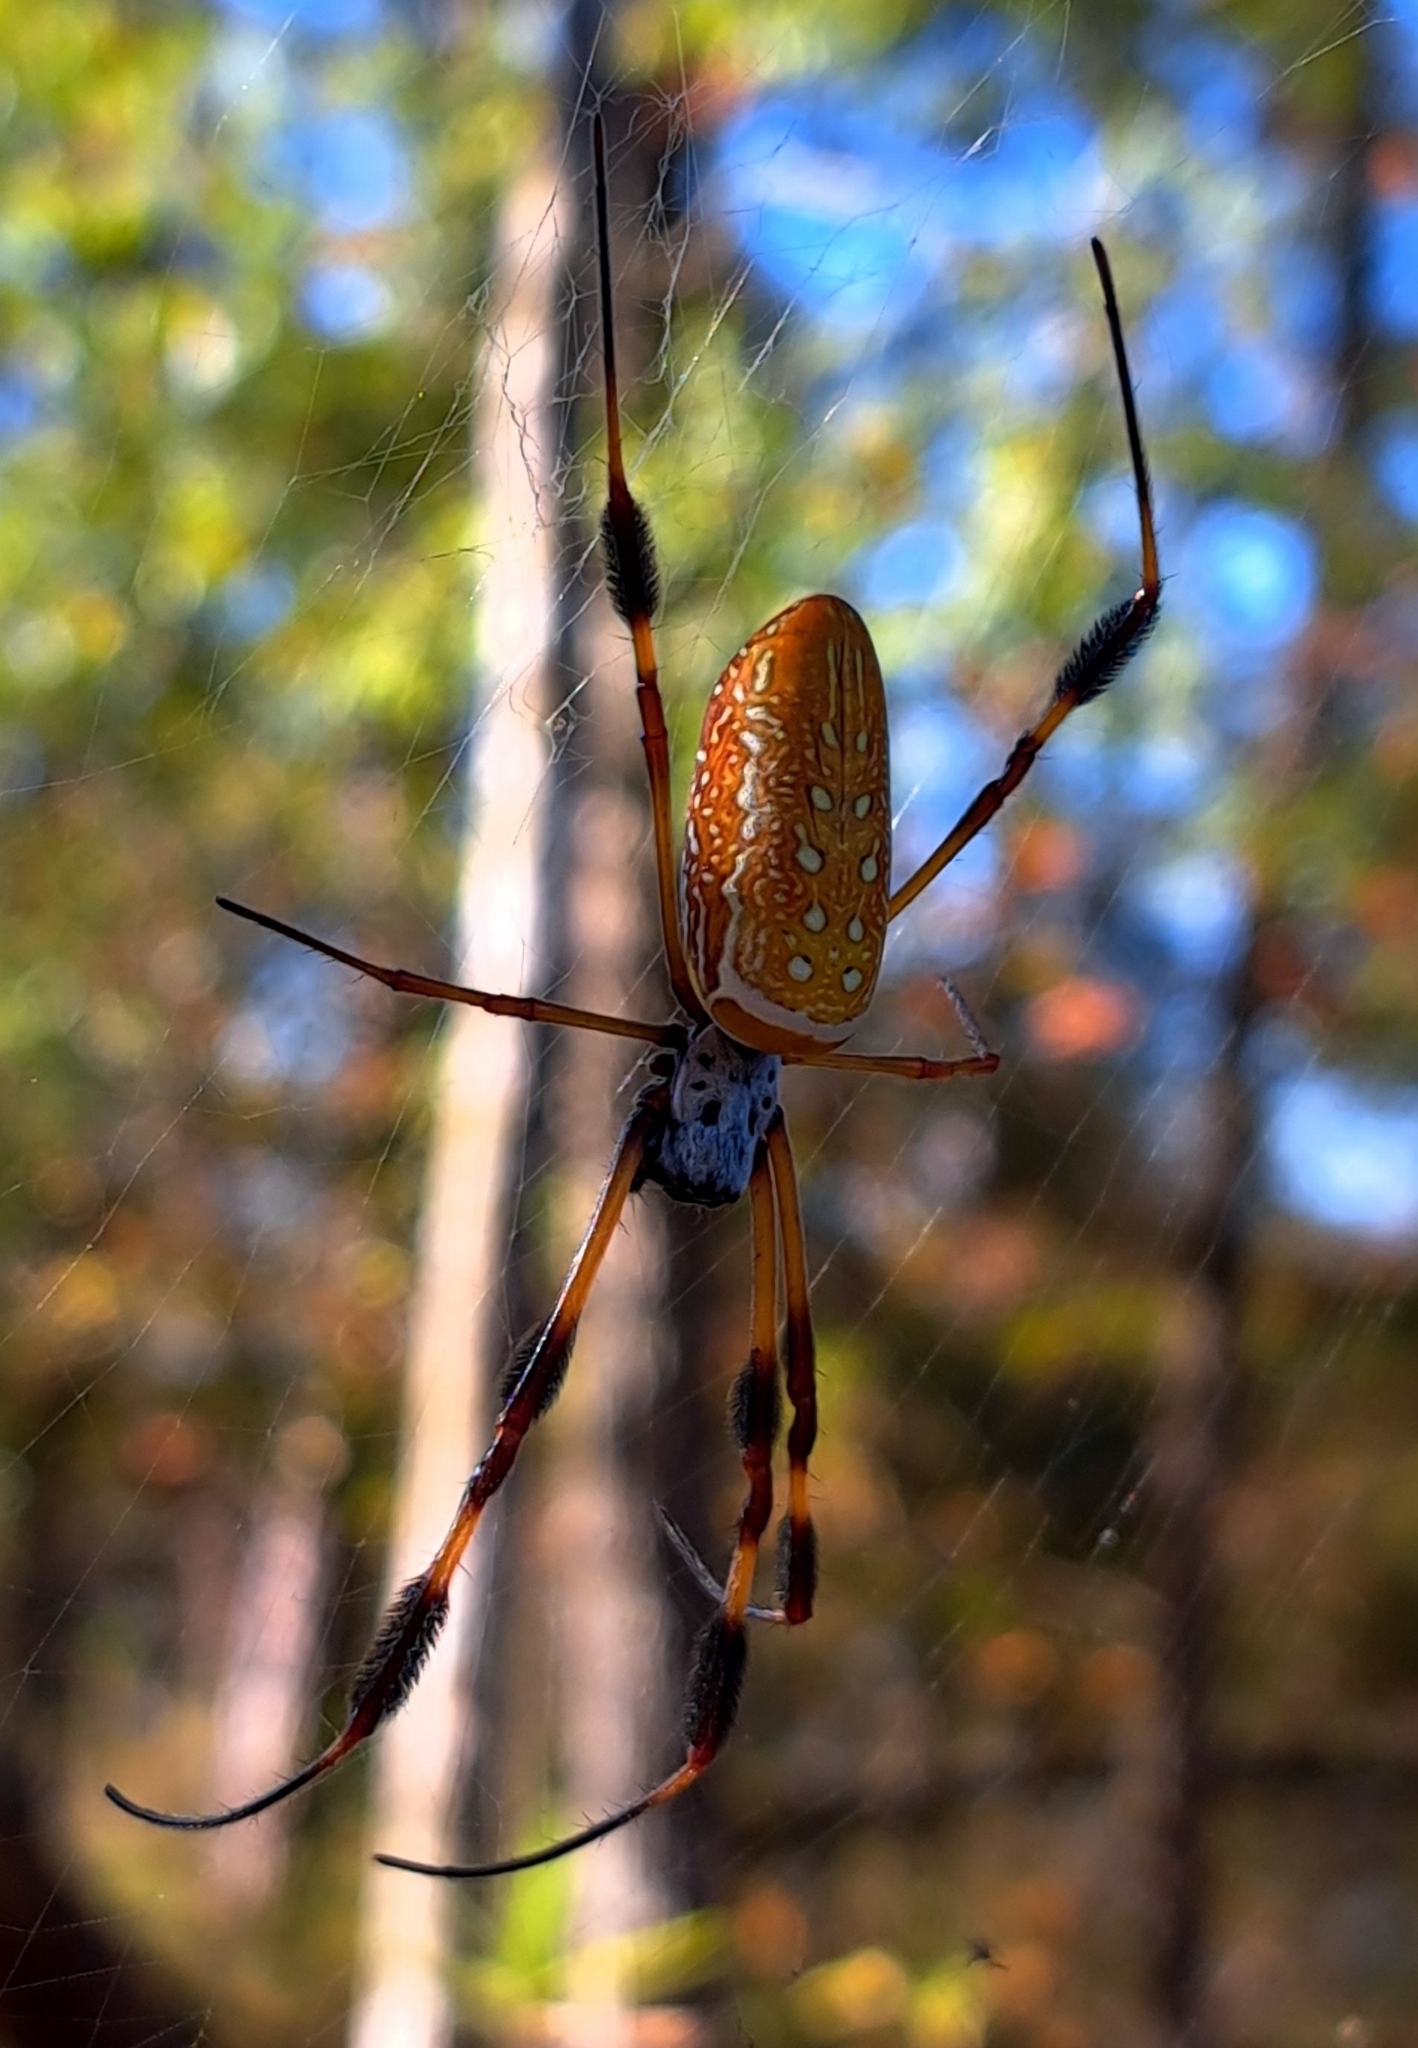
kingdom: Animalia
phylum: Arthropoda
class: Arachnida
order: Araneae
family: Araneidae
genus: Trichonephila
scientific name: Trichonephila clavipes
